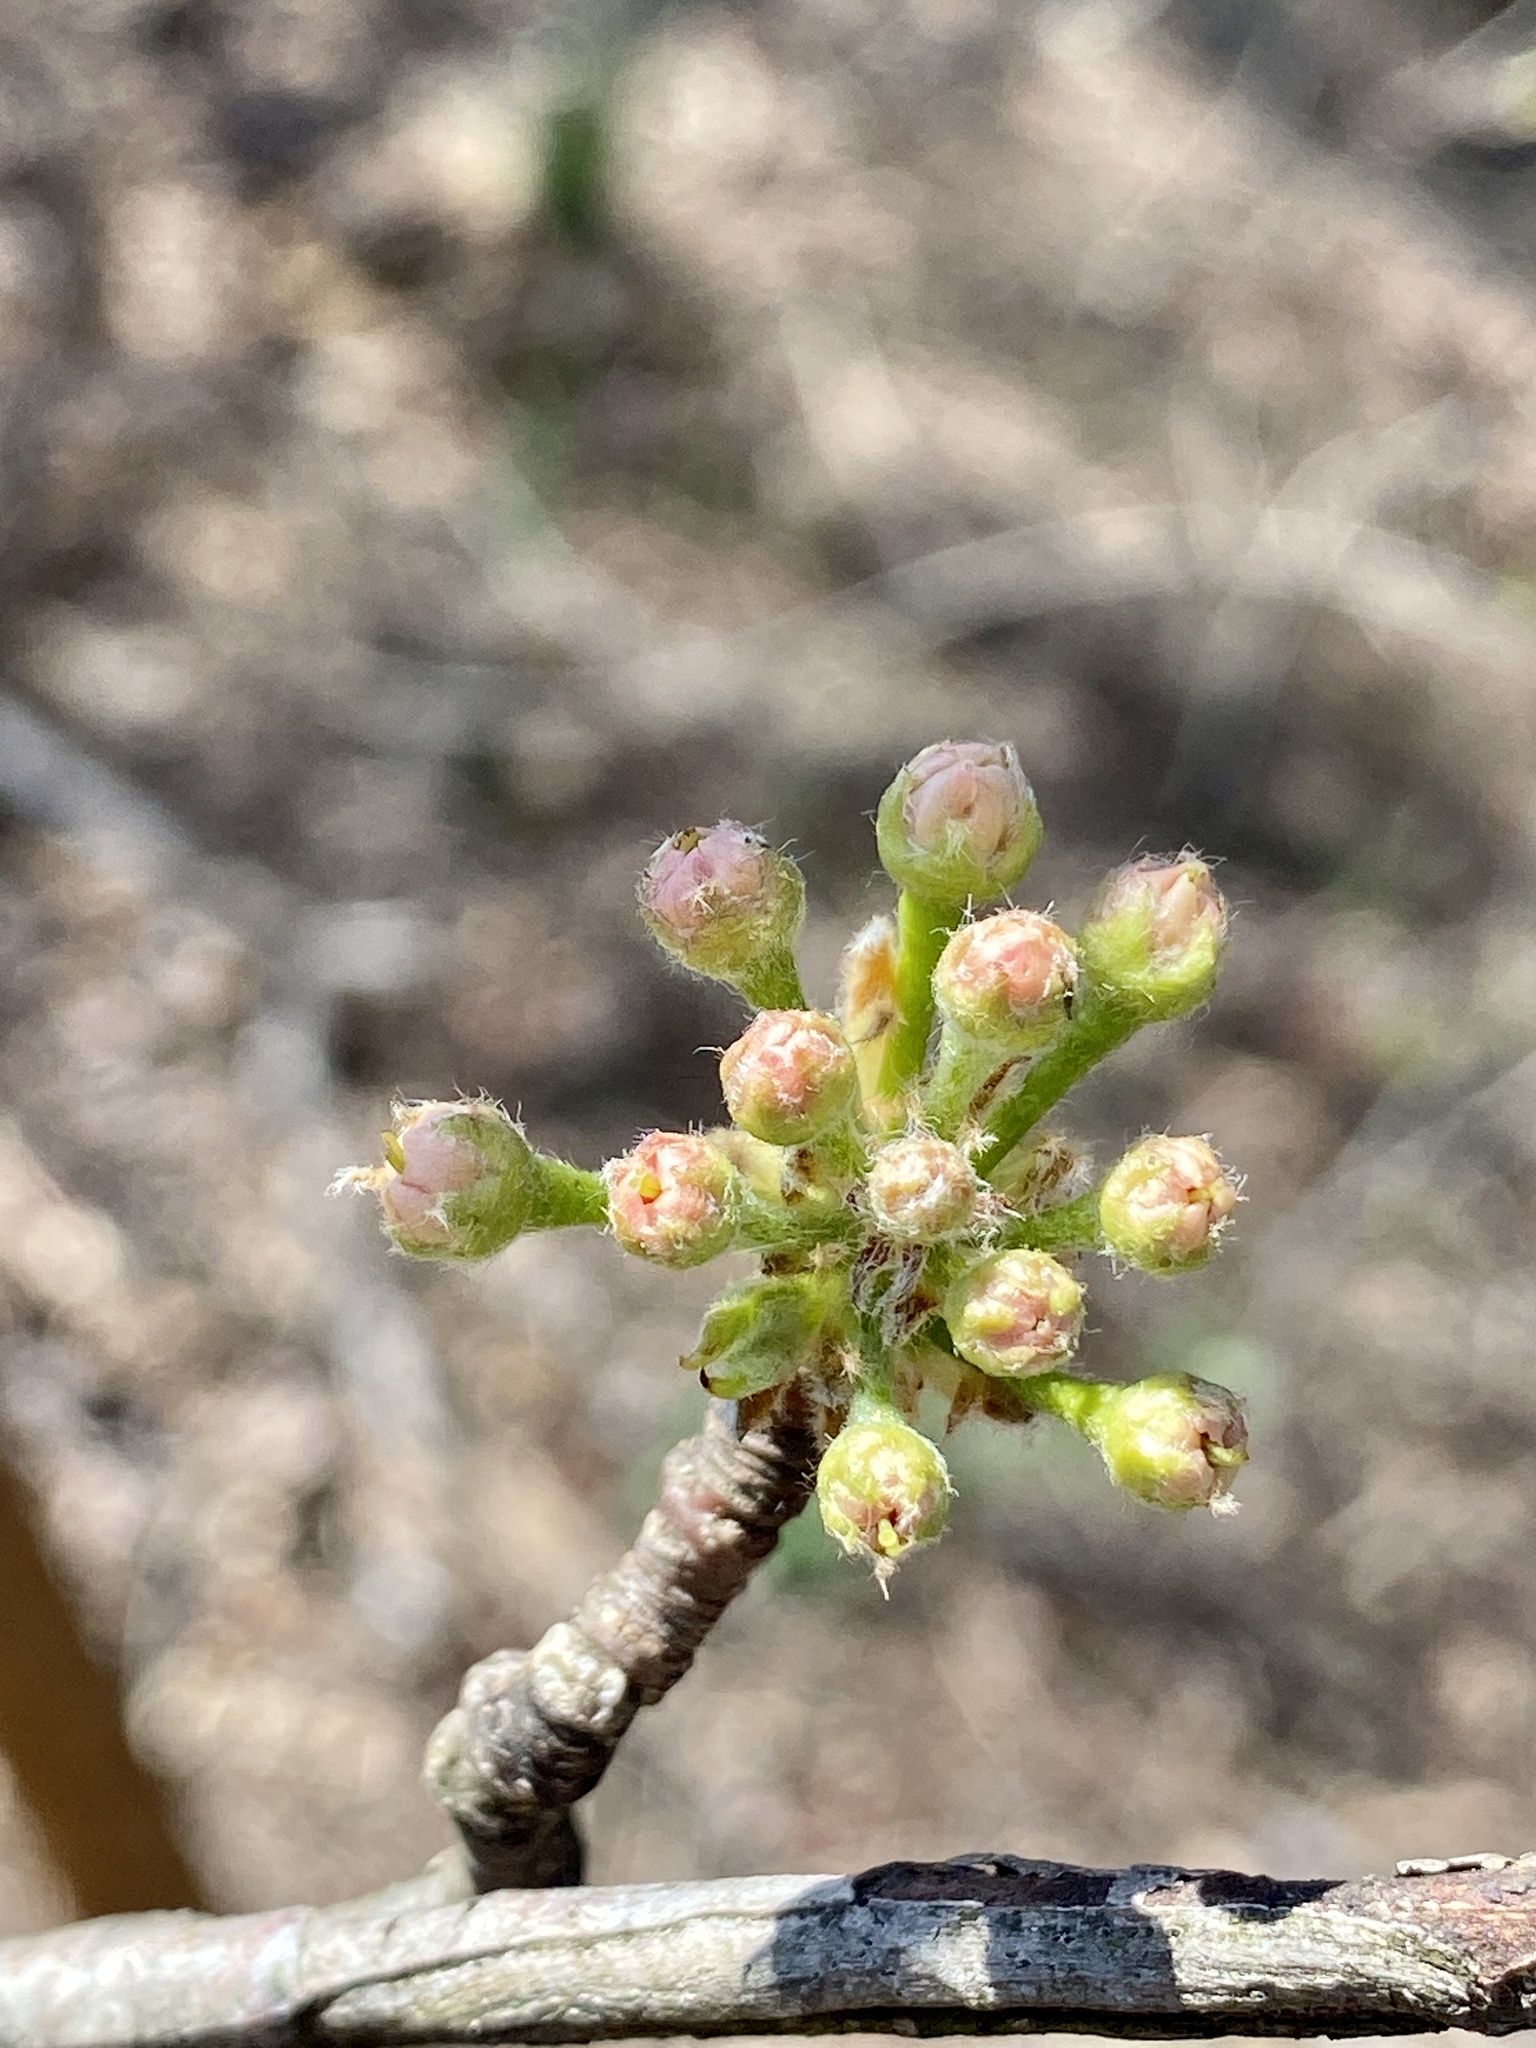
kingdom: Plantae
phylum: Tracheophyta
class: Magnoliopsida
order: Rosales
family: Rosaceae
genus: Pyrus
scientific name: Pyrus calleryana
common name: Callery pear
